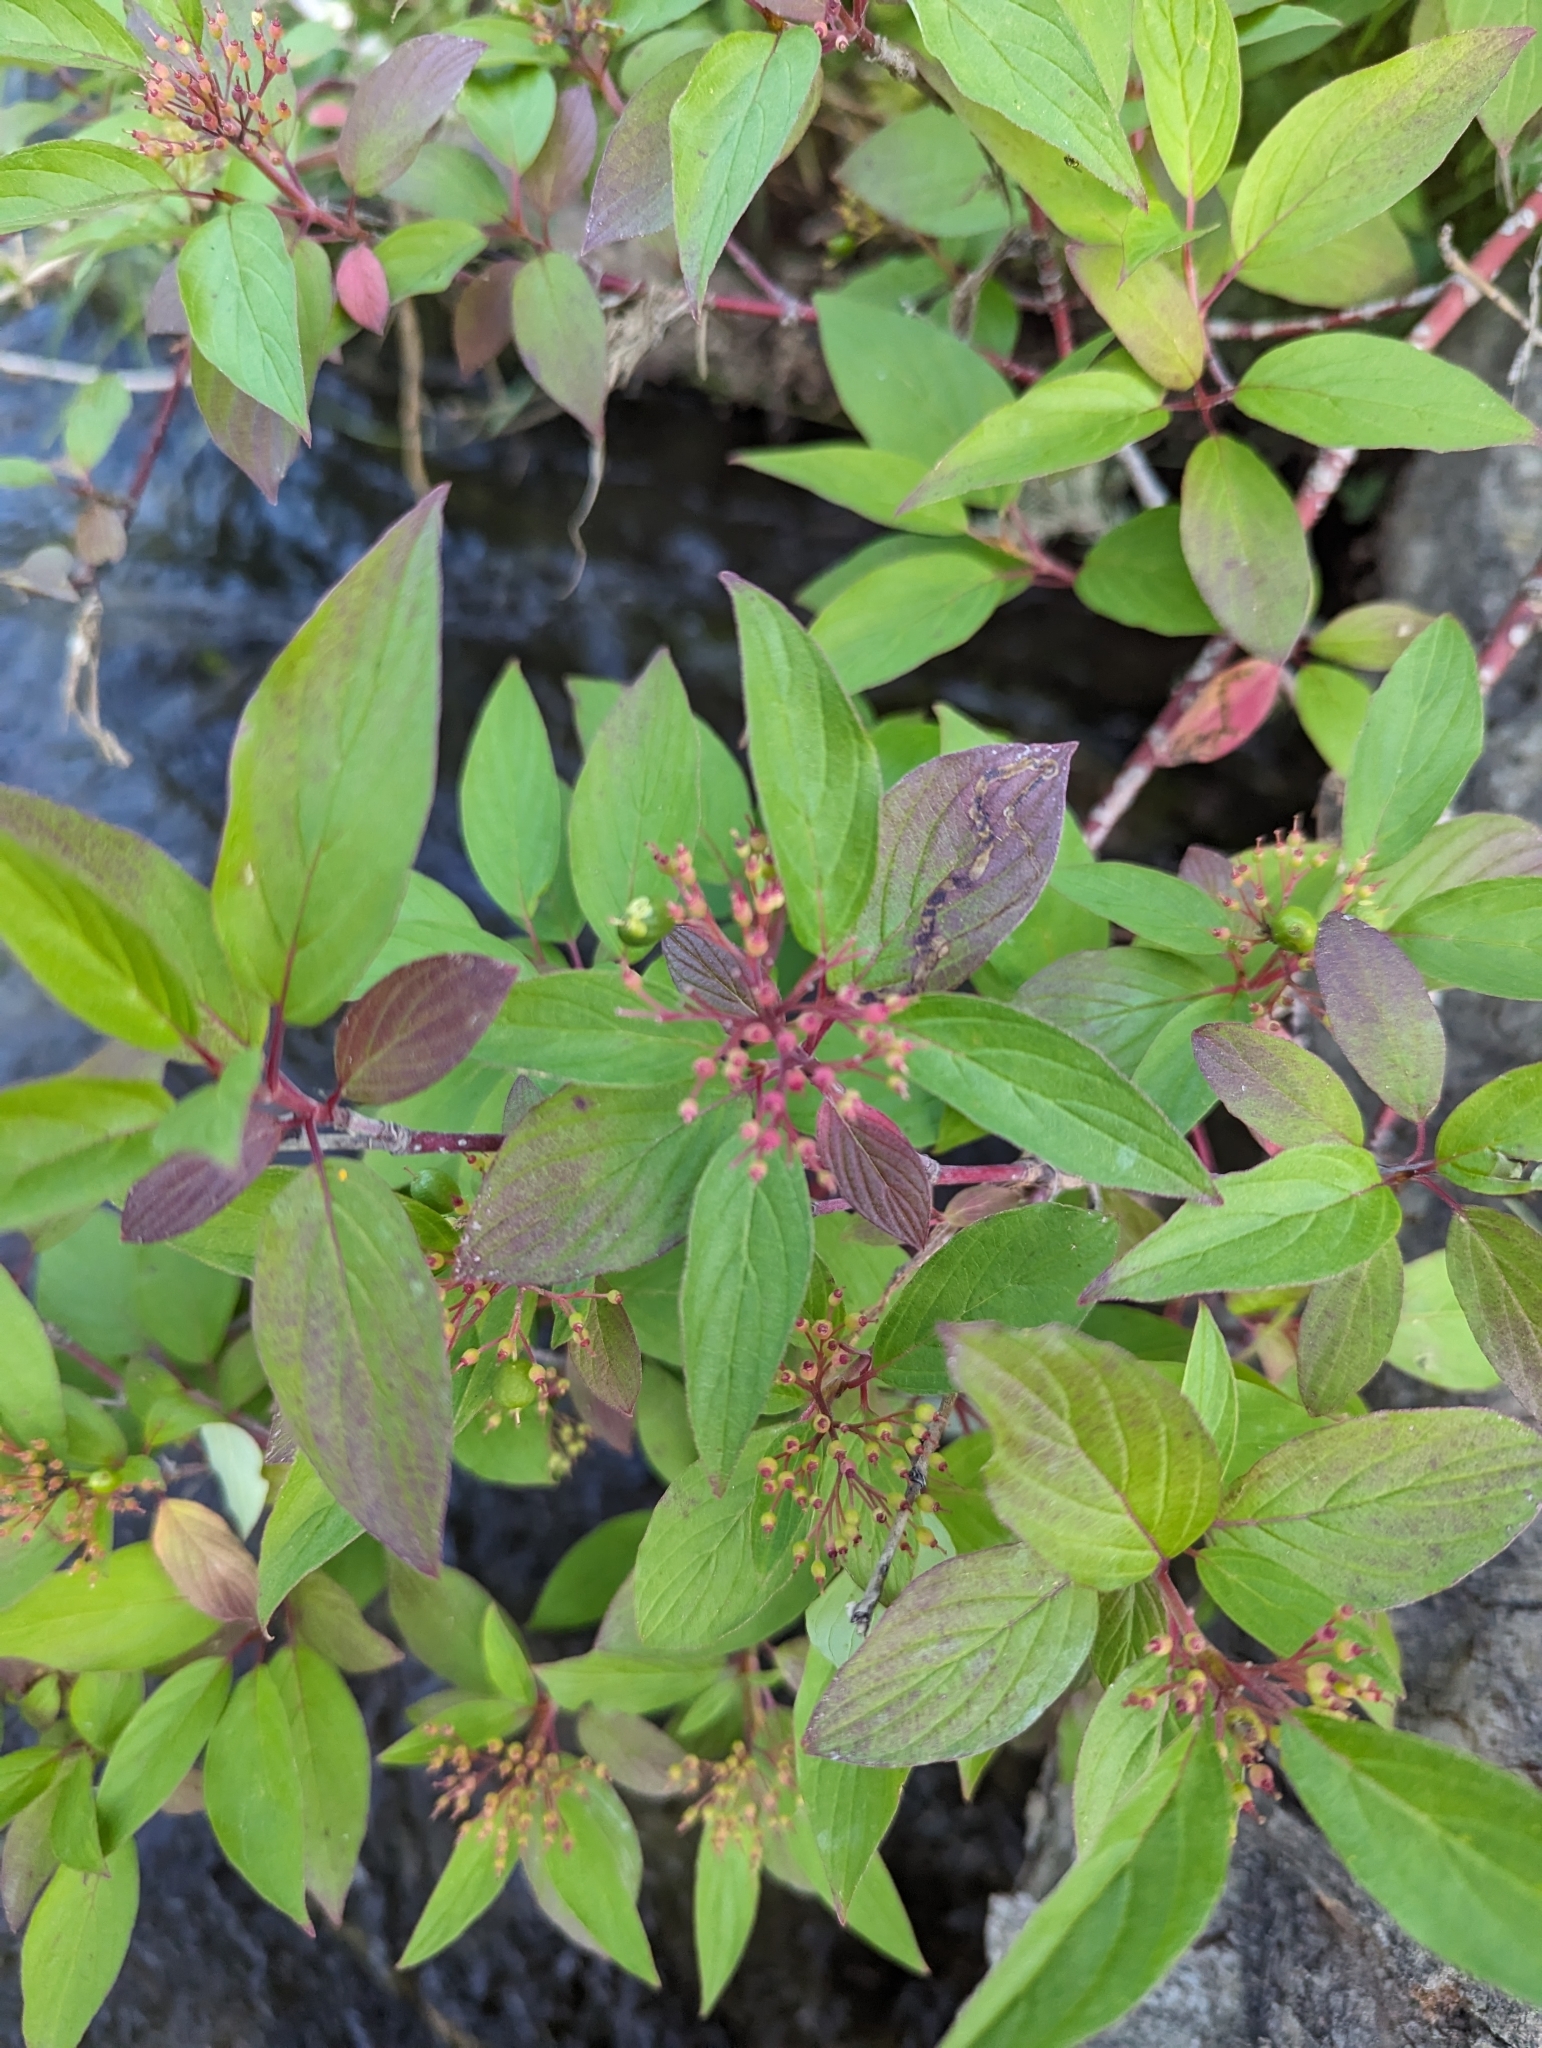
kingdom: Plantae
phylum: Tracheophyta
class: Magnoliopsida
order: Cornales
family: Cornaceae
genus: Cornus
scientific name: Cornus sericea
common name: Red-osier dogwood
